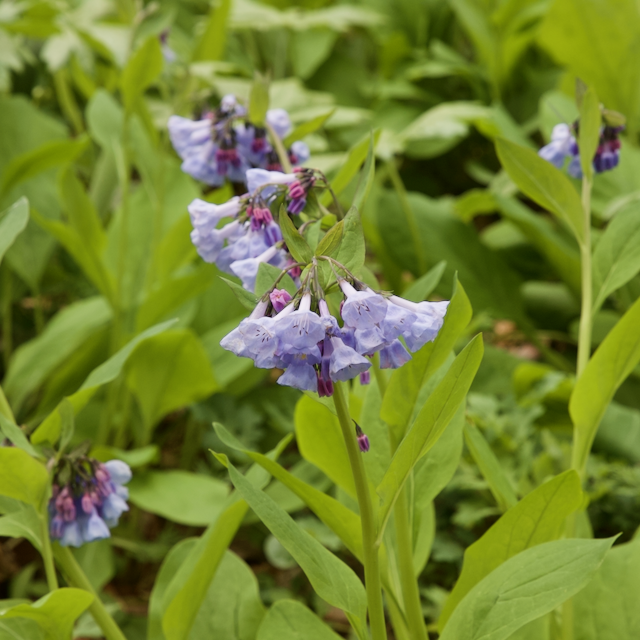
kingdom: Plantae
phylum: Tracheophyta
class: Magnoliopsida
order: Boraginales
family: Boraginaceae
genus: Mertensia
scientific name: Mertensia virginica
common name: Virginia bluebells
